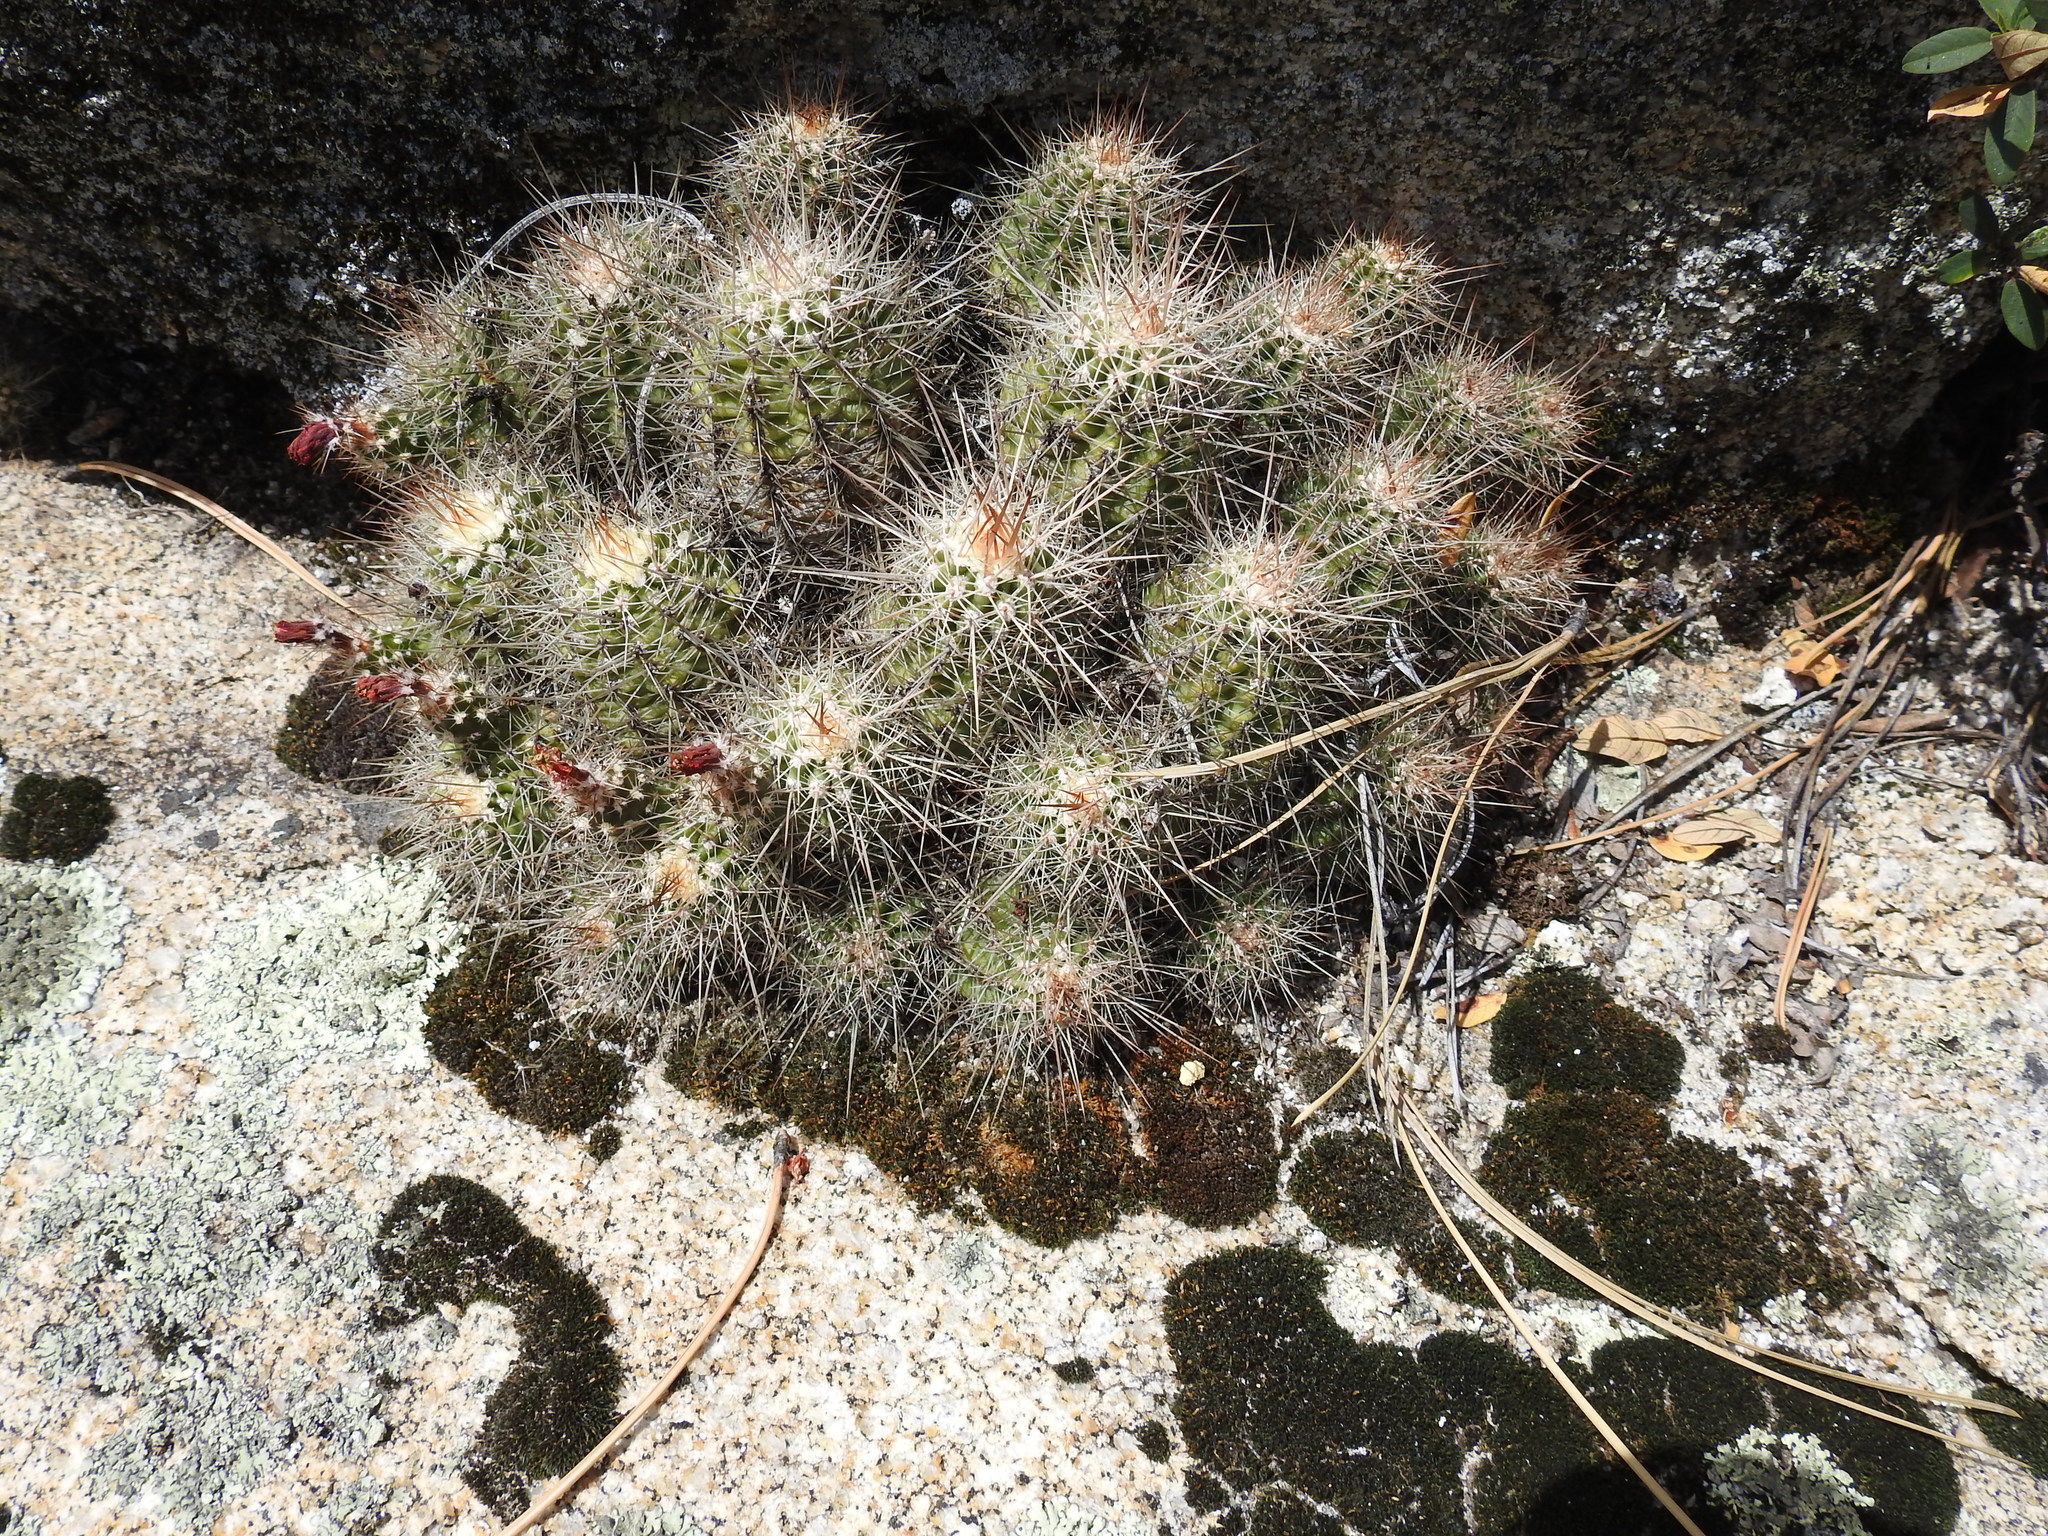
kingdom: Plantae
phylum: Tracheophyta
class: Magnoliopsida
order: Caryophyllales
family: Cactaceae
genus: Echinocereus
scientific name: Echinocereus pacificus
